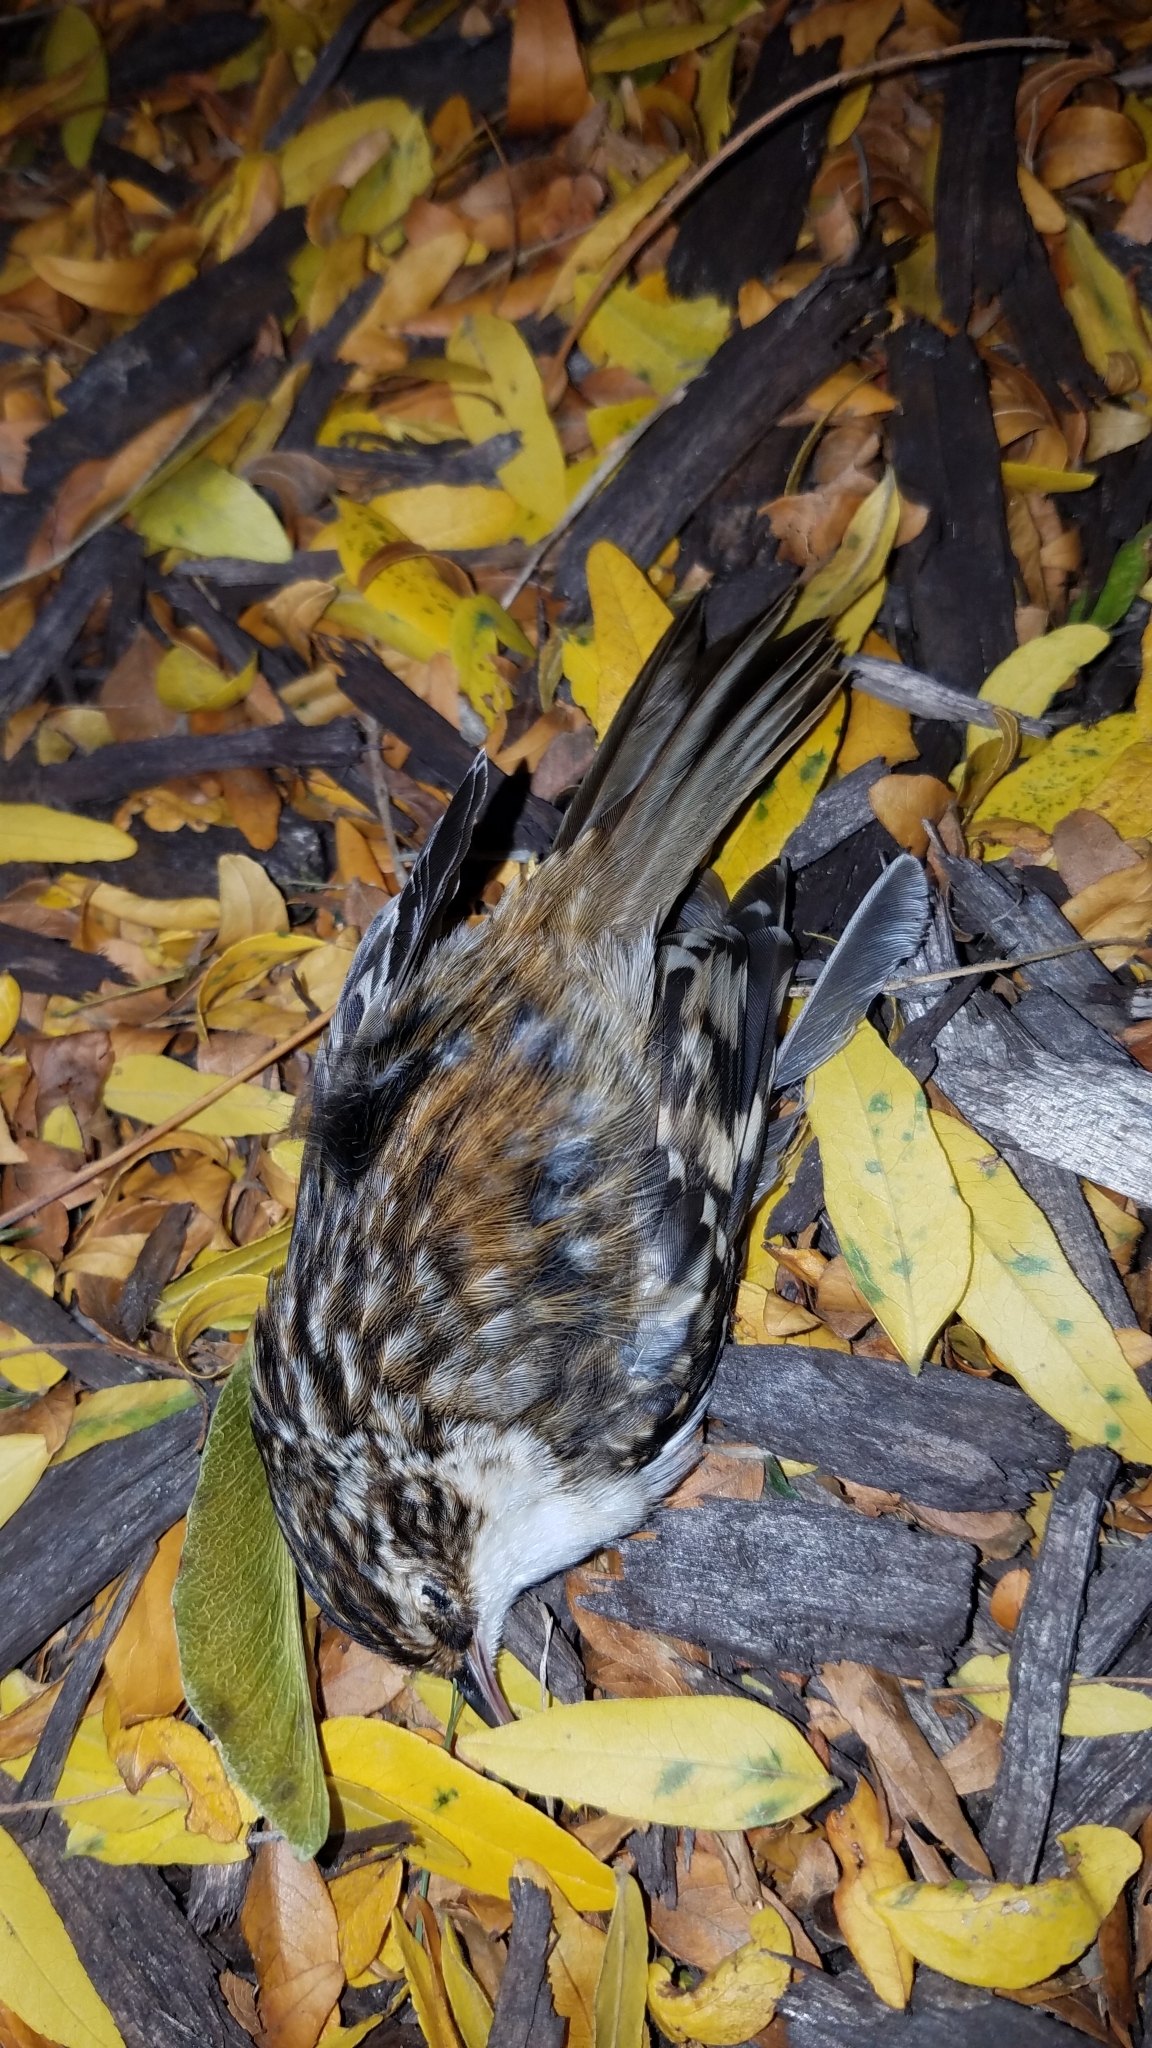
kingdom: Animalia
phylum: Chordata
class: Aves
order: Passeriformes
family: Certhiidae
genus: Certhia
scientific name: Certhia americana
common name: Brown creeper
